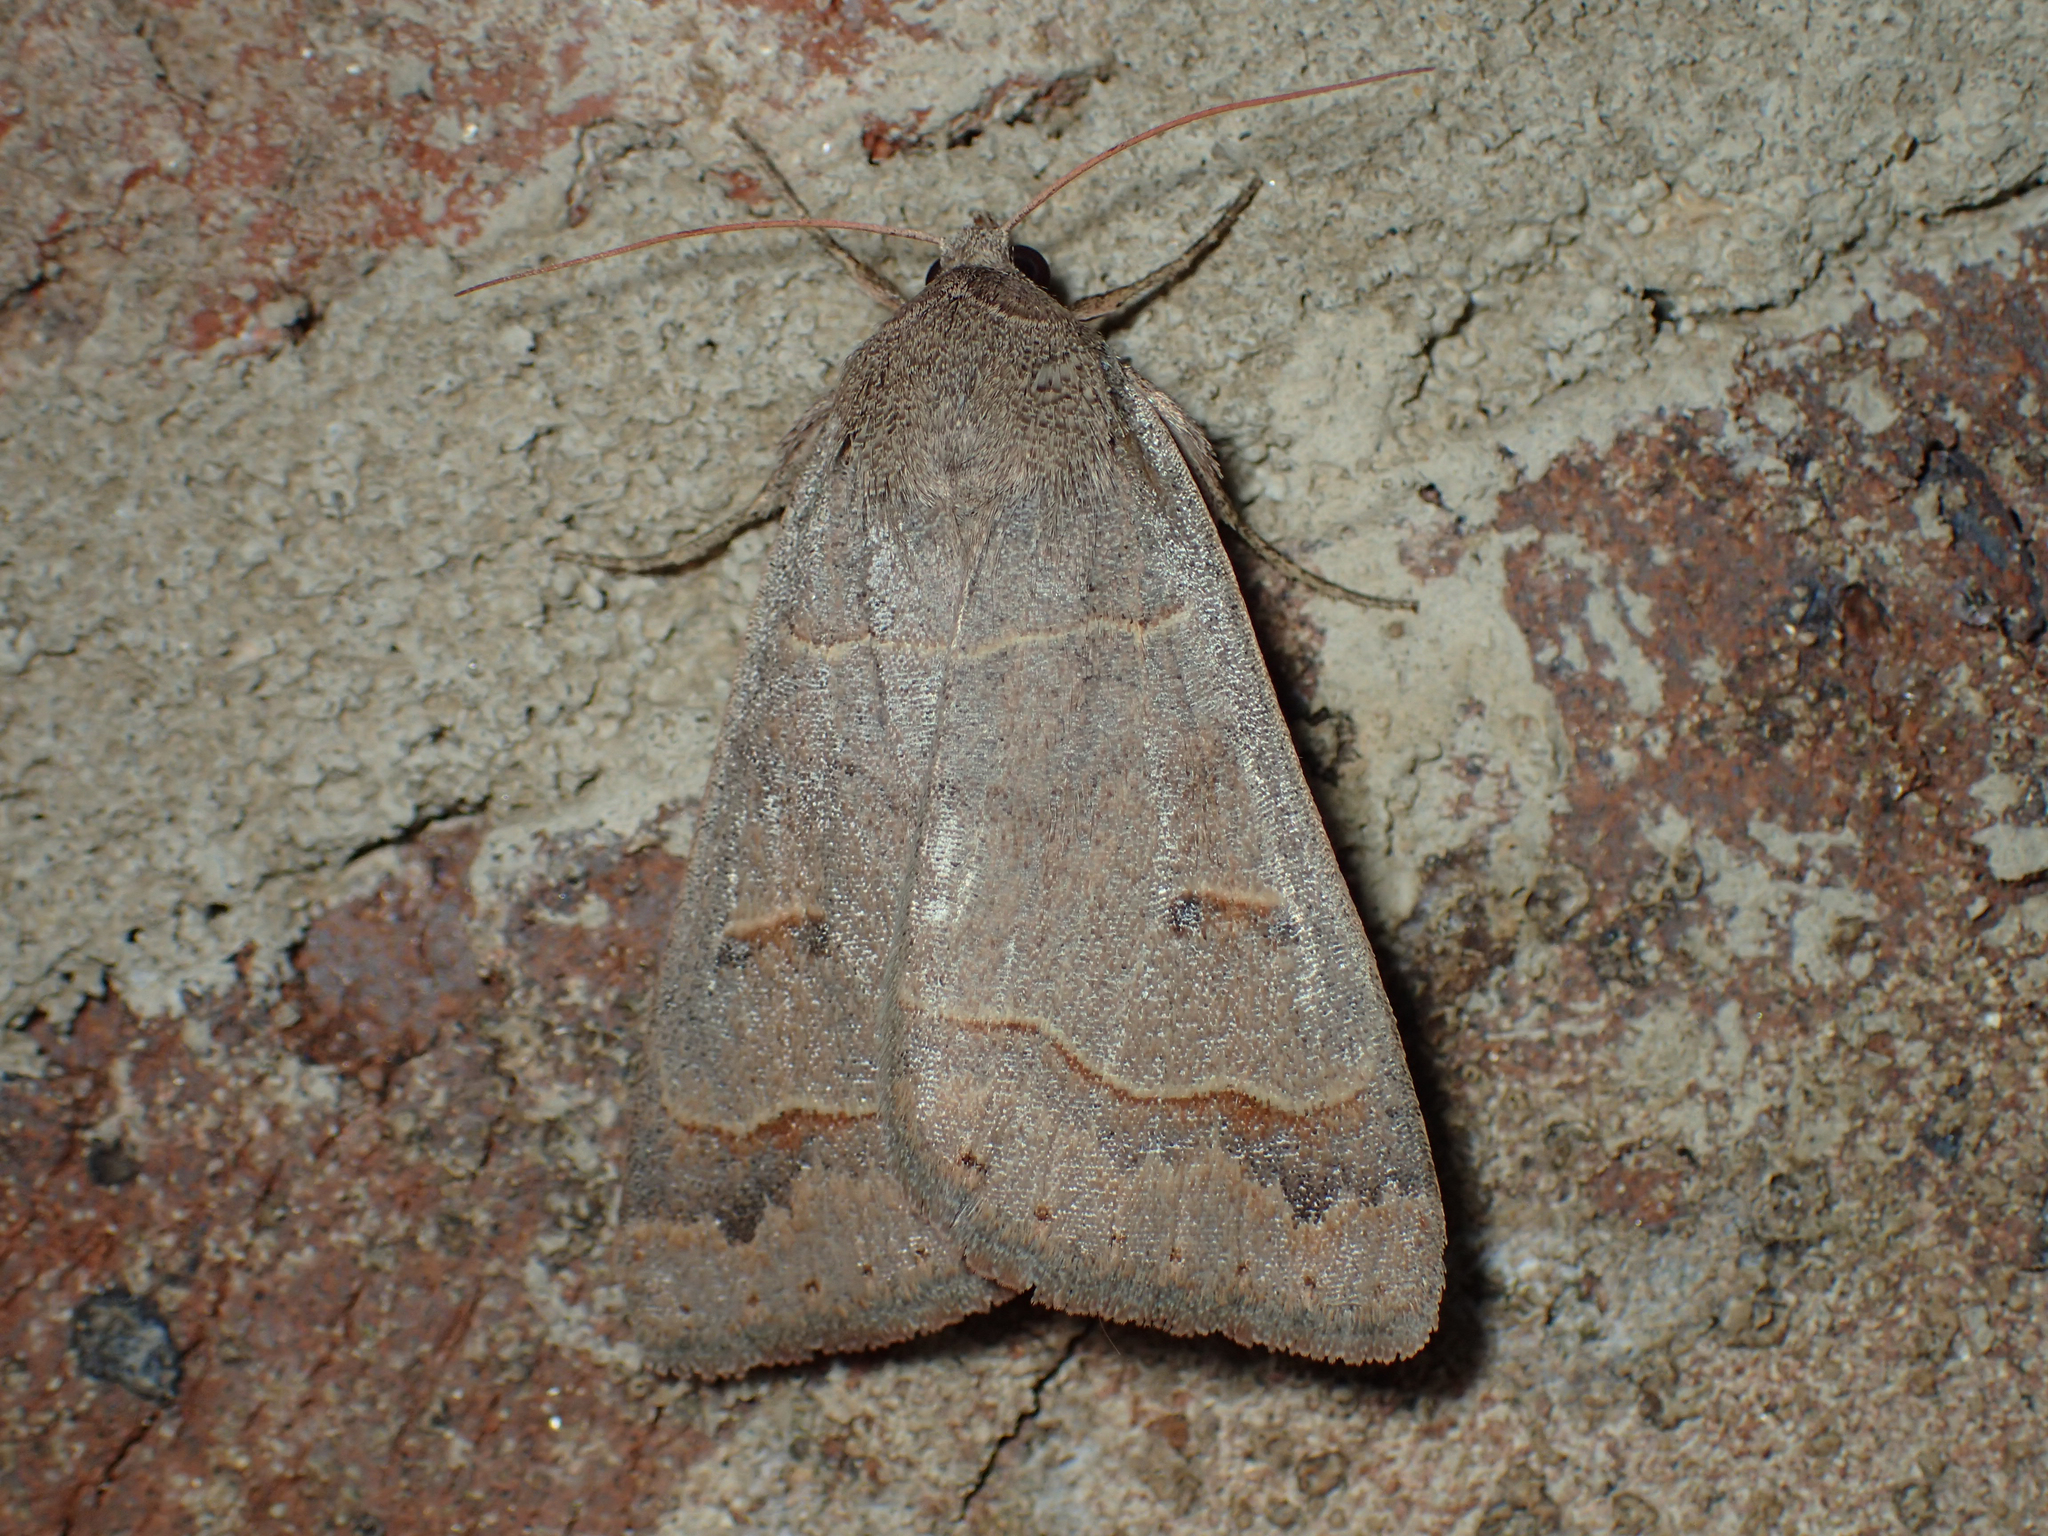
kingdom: Animalia
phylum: Arthropoda
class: Insecta
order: Lepidoptera
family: Erebidae
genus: Phoberia
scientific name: Phoberia atomaris
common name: Common oak moth
